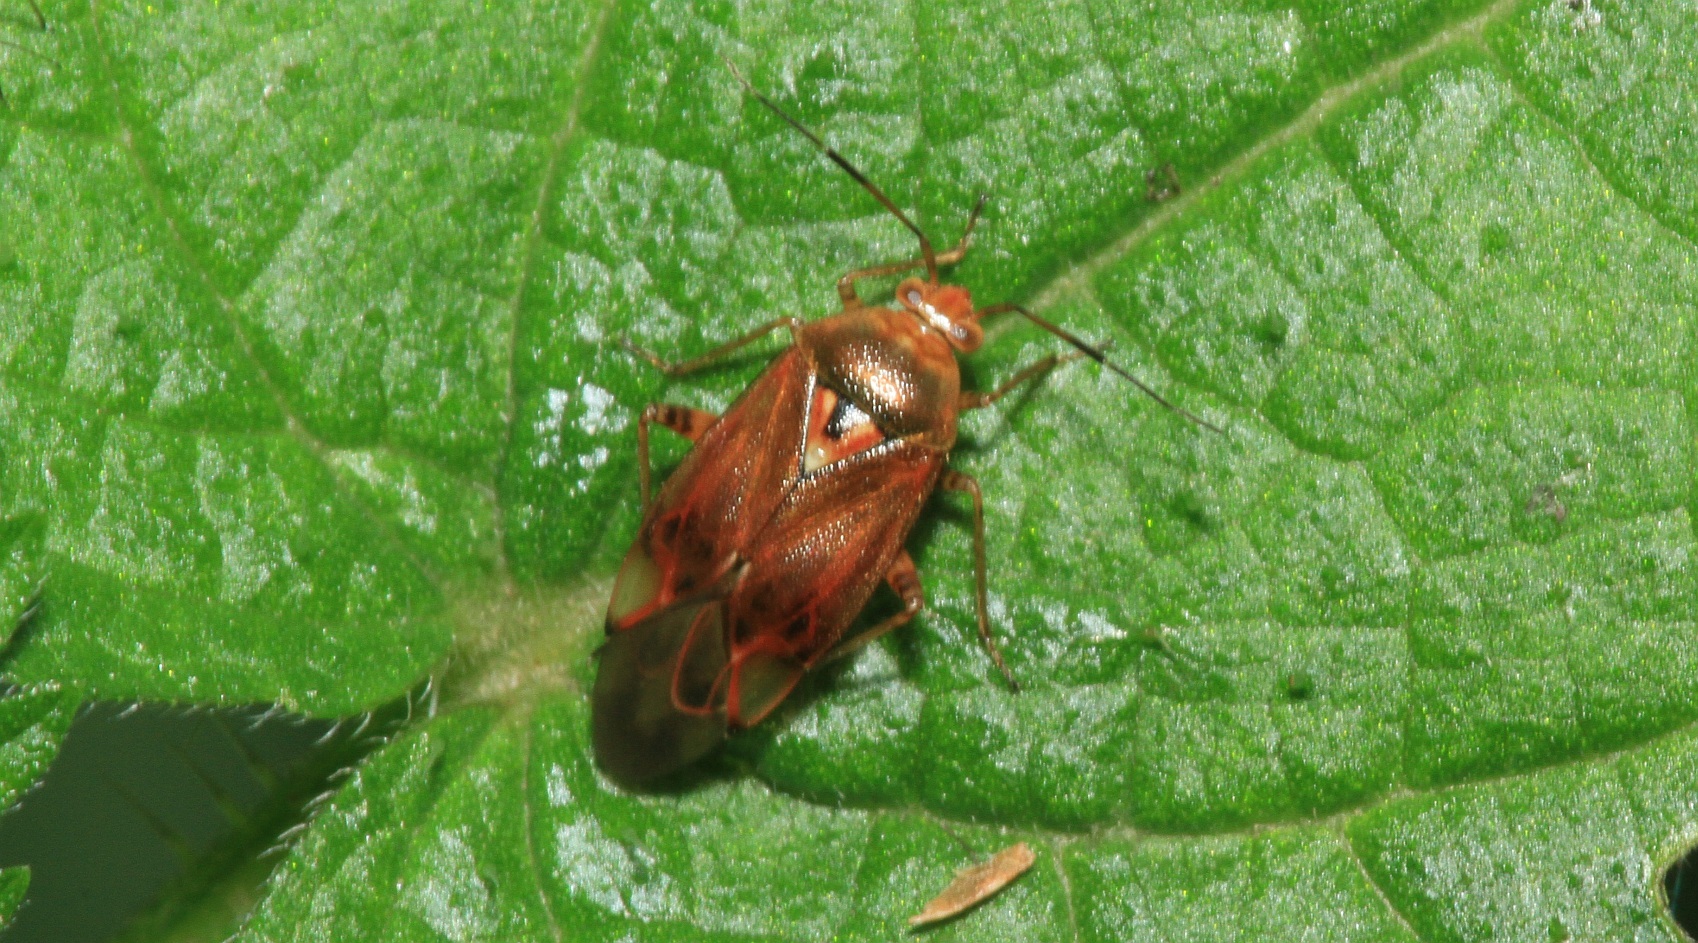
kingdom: Animalia
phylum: Arthropoda
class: Insecta
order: Hemiptera
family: Miridae
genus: Lygus
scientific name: Lygus pratensis
